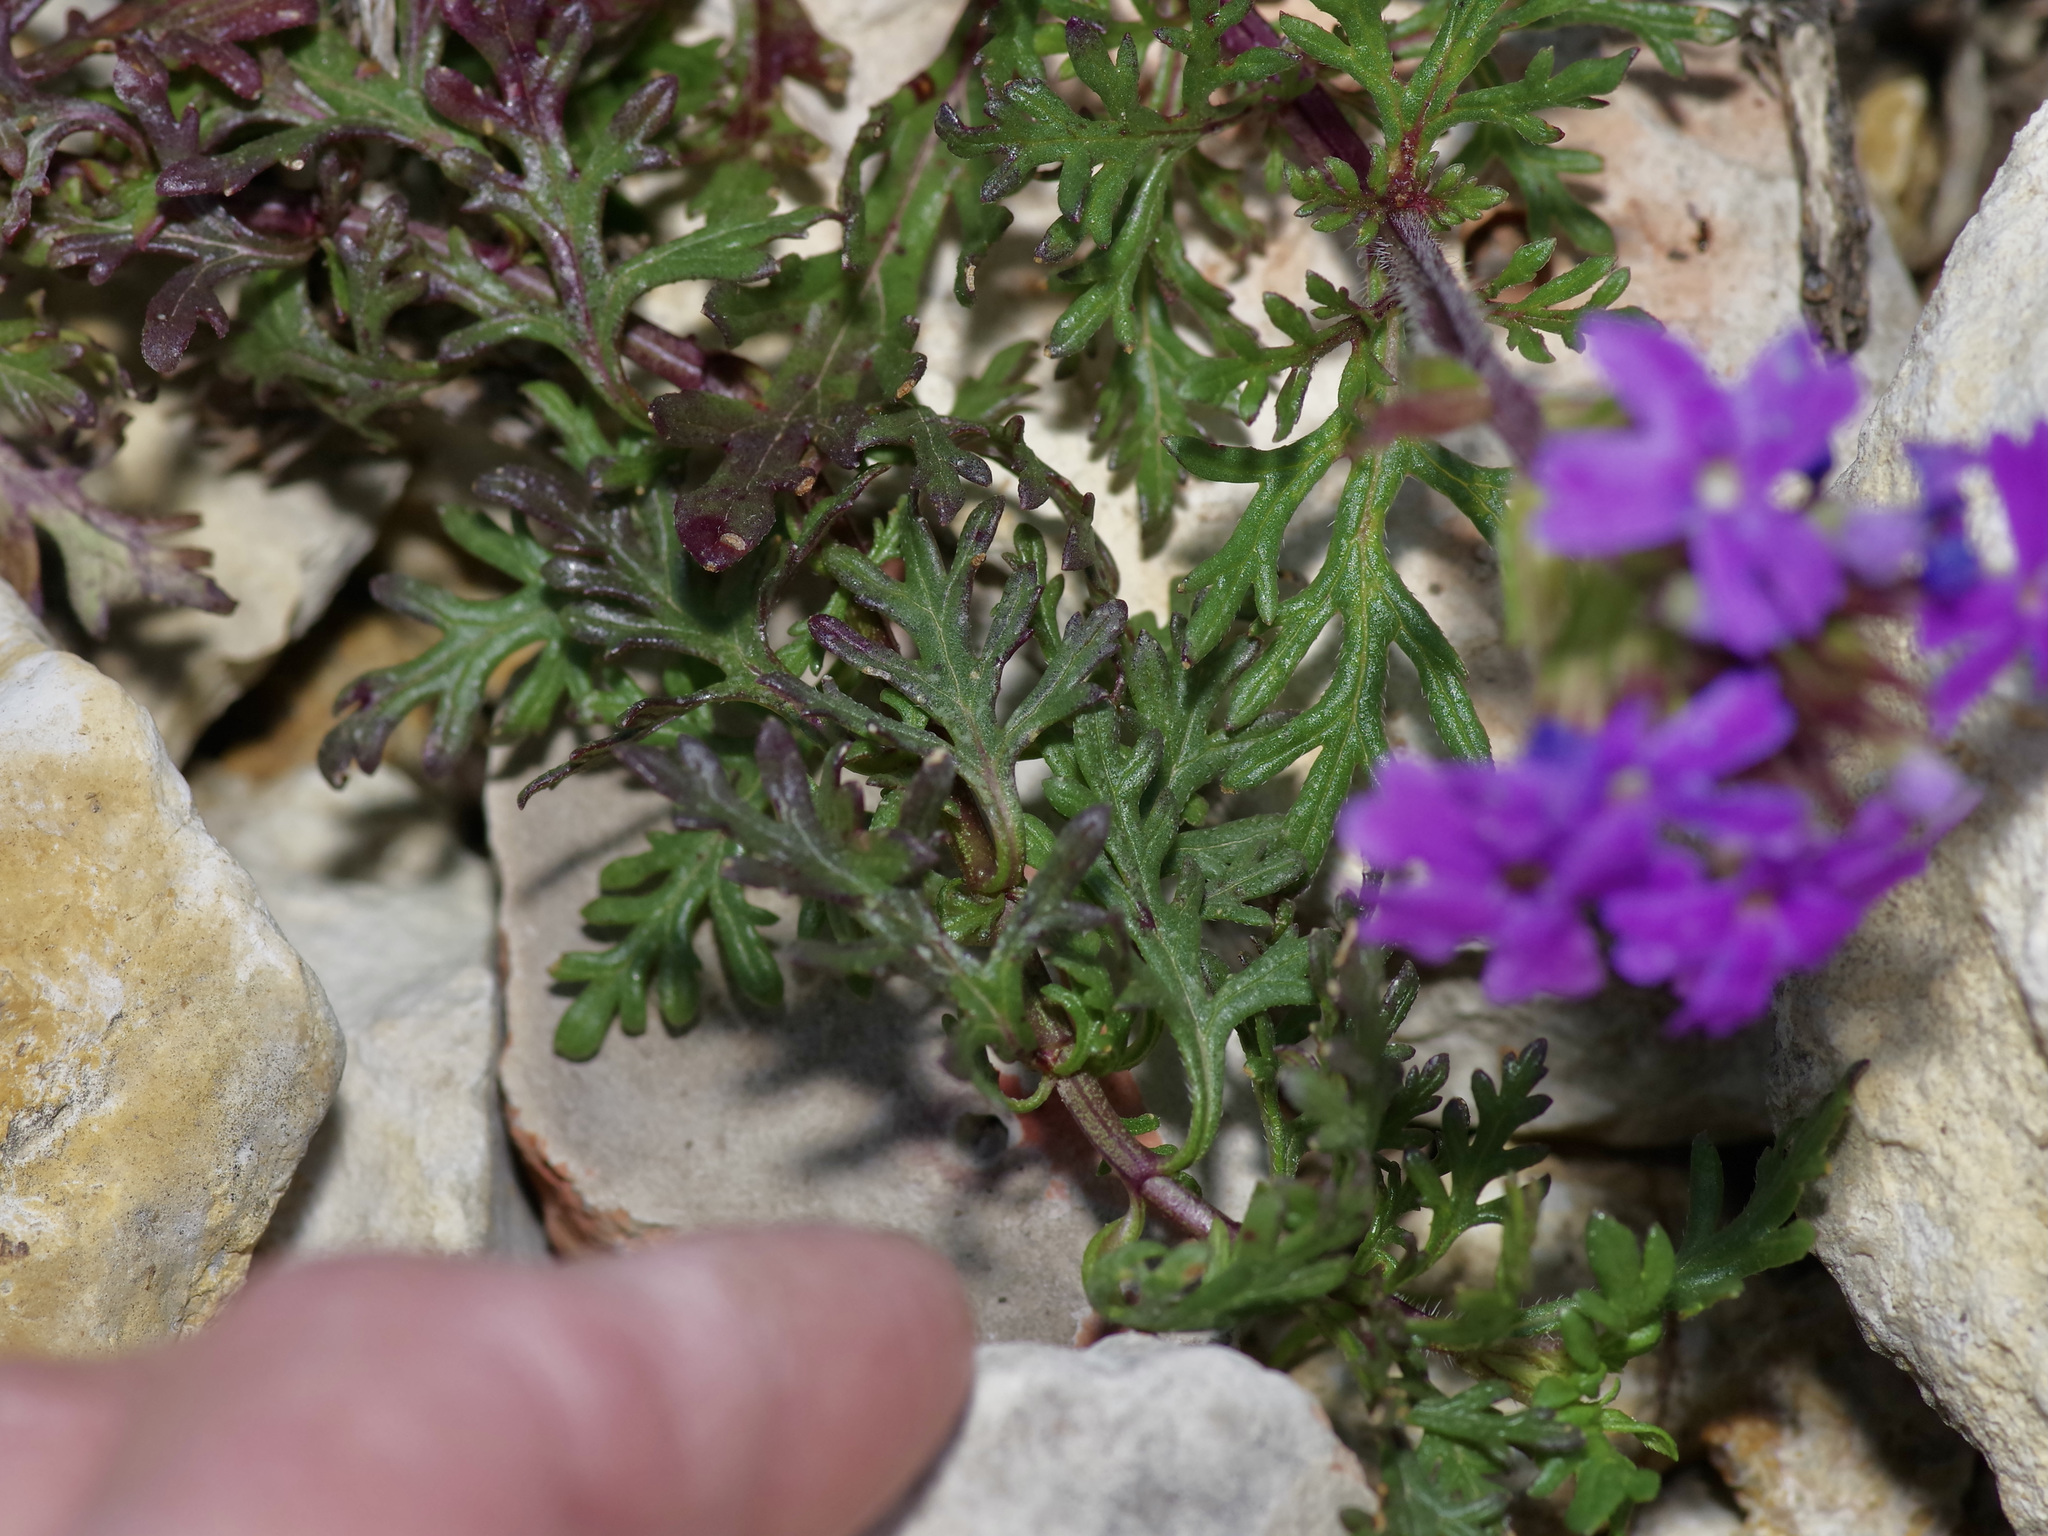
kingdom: Plantae
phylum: Tracheophyta
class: Magnoliopsida
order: Lamiales
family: Verbenaceae
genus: Verbena
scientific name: Verbena bipinnatifida
